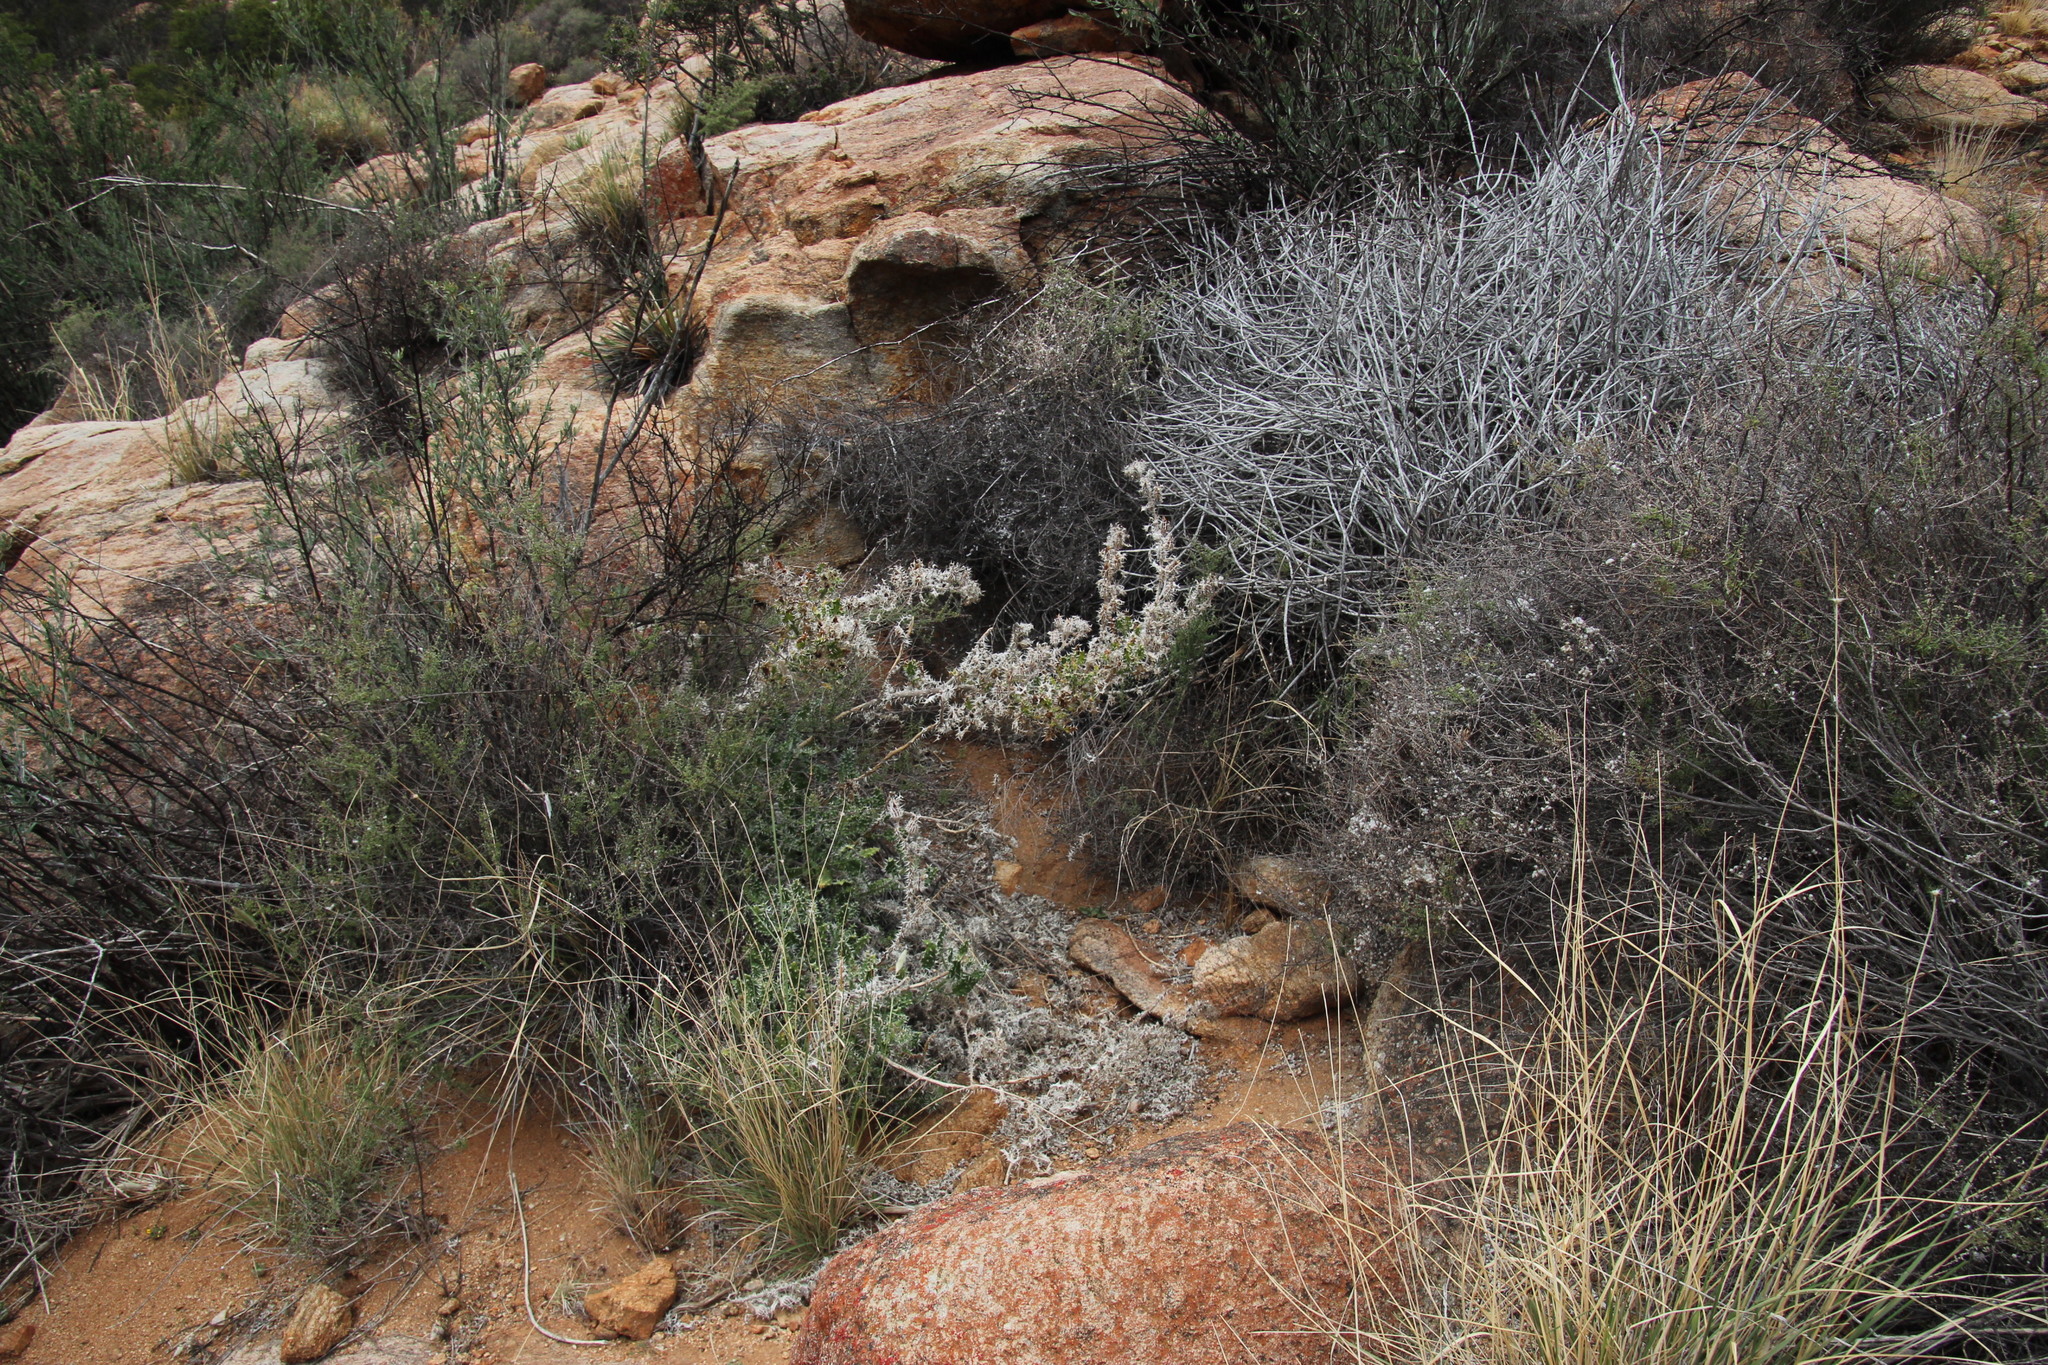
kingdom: Plantae
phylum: Tracheophyta
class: Magnoliopsida
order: Asterales
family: Asteraceae
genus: Berkheya
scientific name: Berkheya spinosissima
